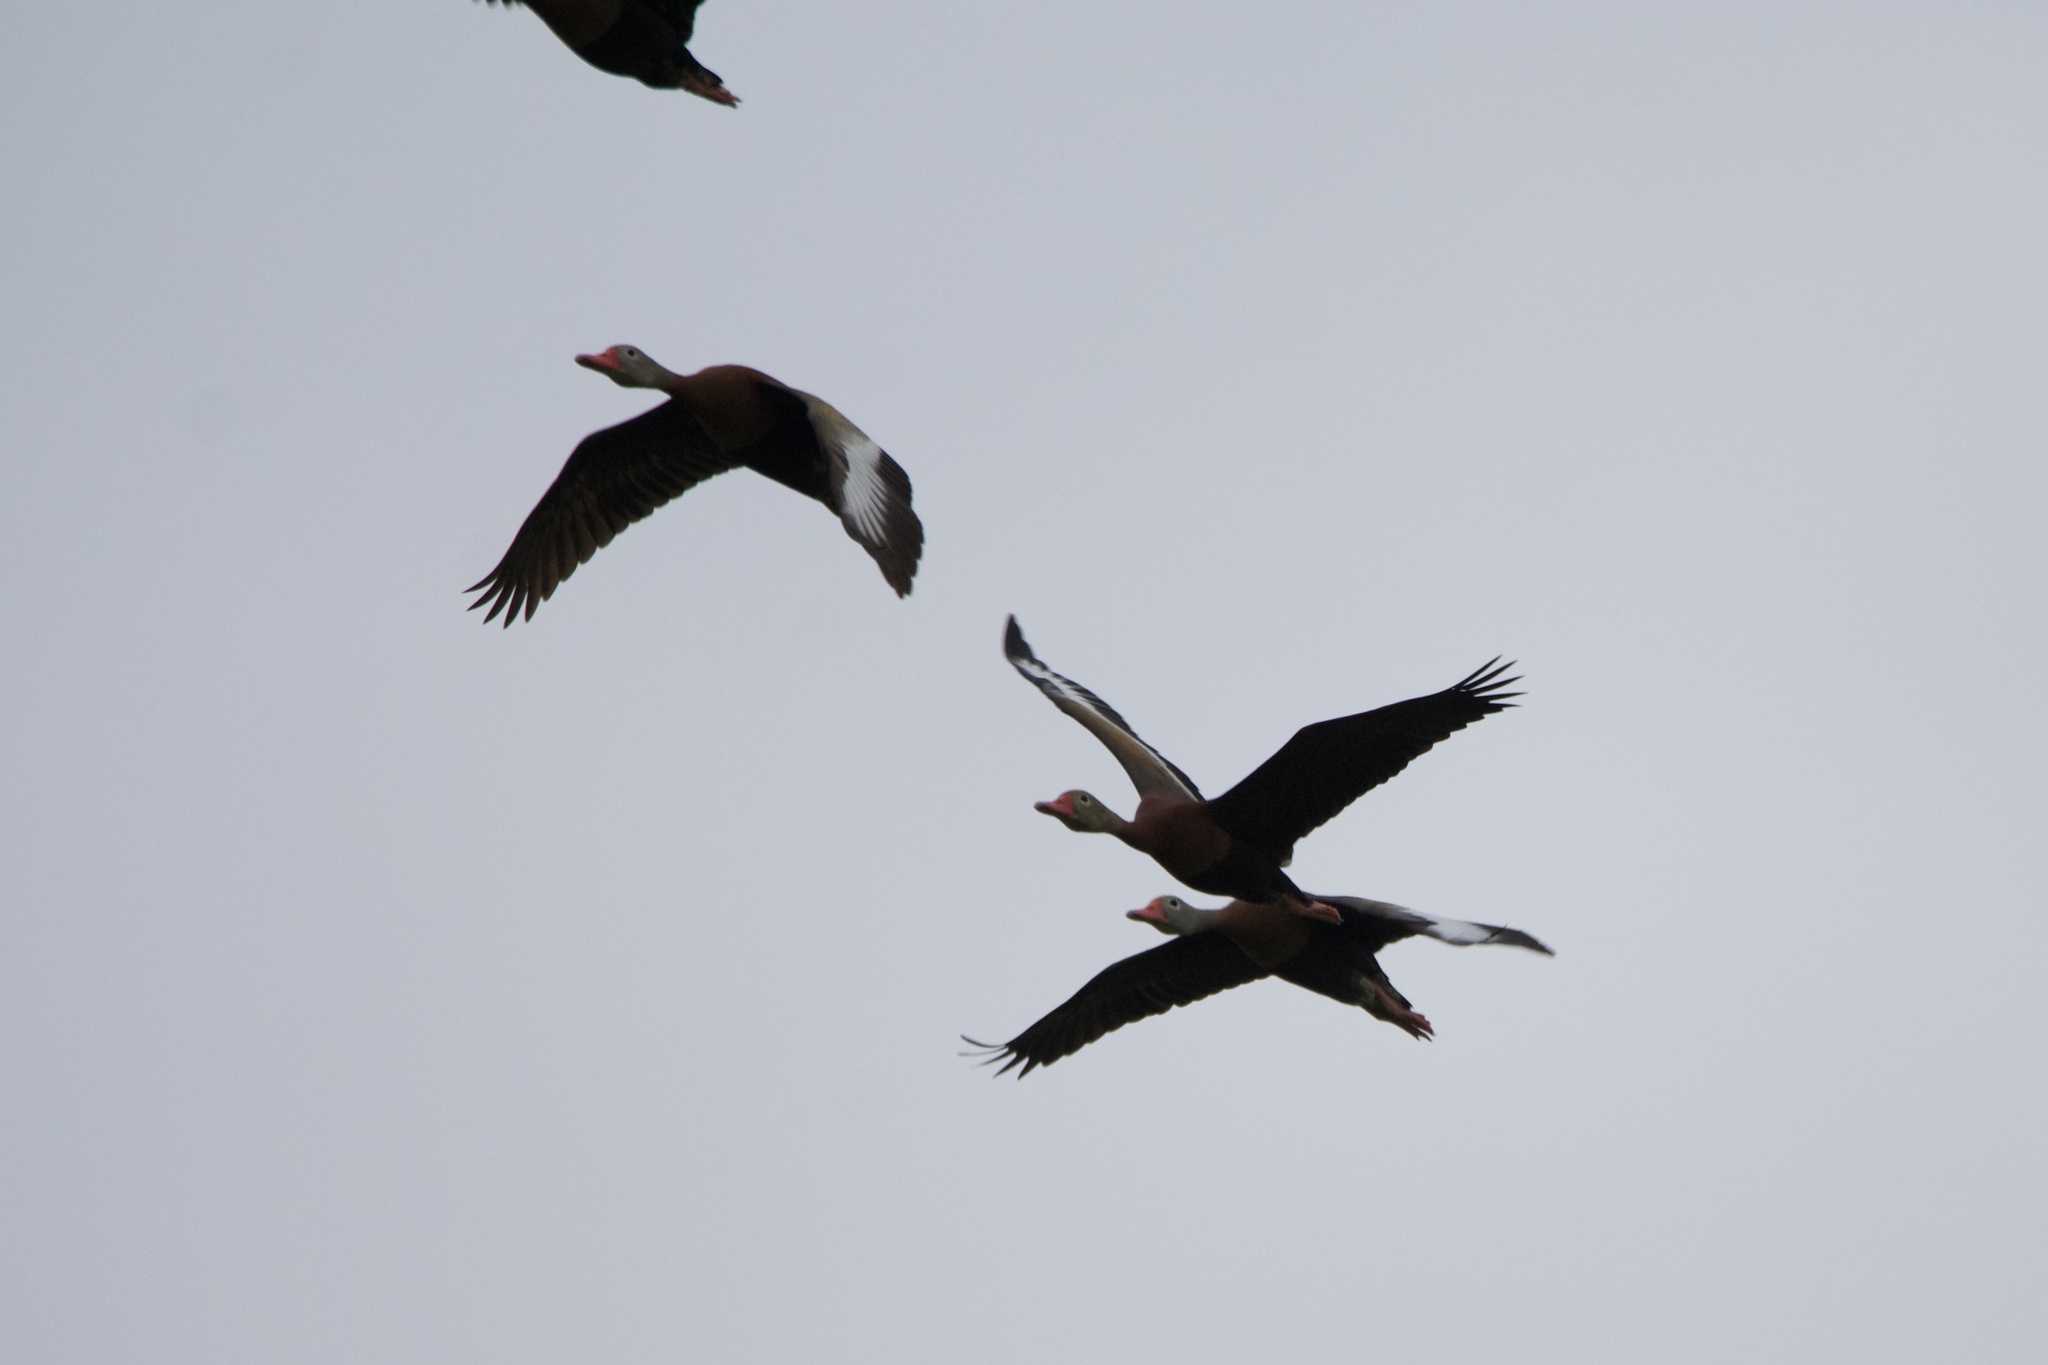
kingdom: Animalia
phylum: Chordata
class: Aves
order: Anseriformes
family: Anatidae
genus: Dendrocygna
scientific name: Dendrocygna autumnalis
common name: Black-bellied whistling duck
